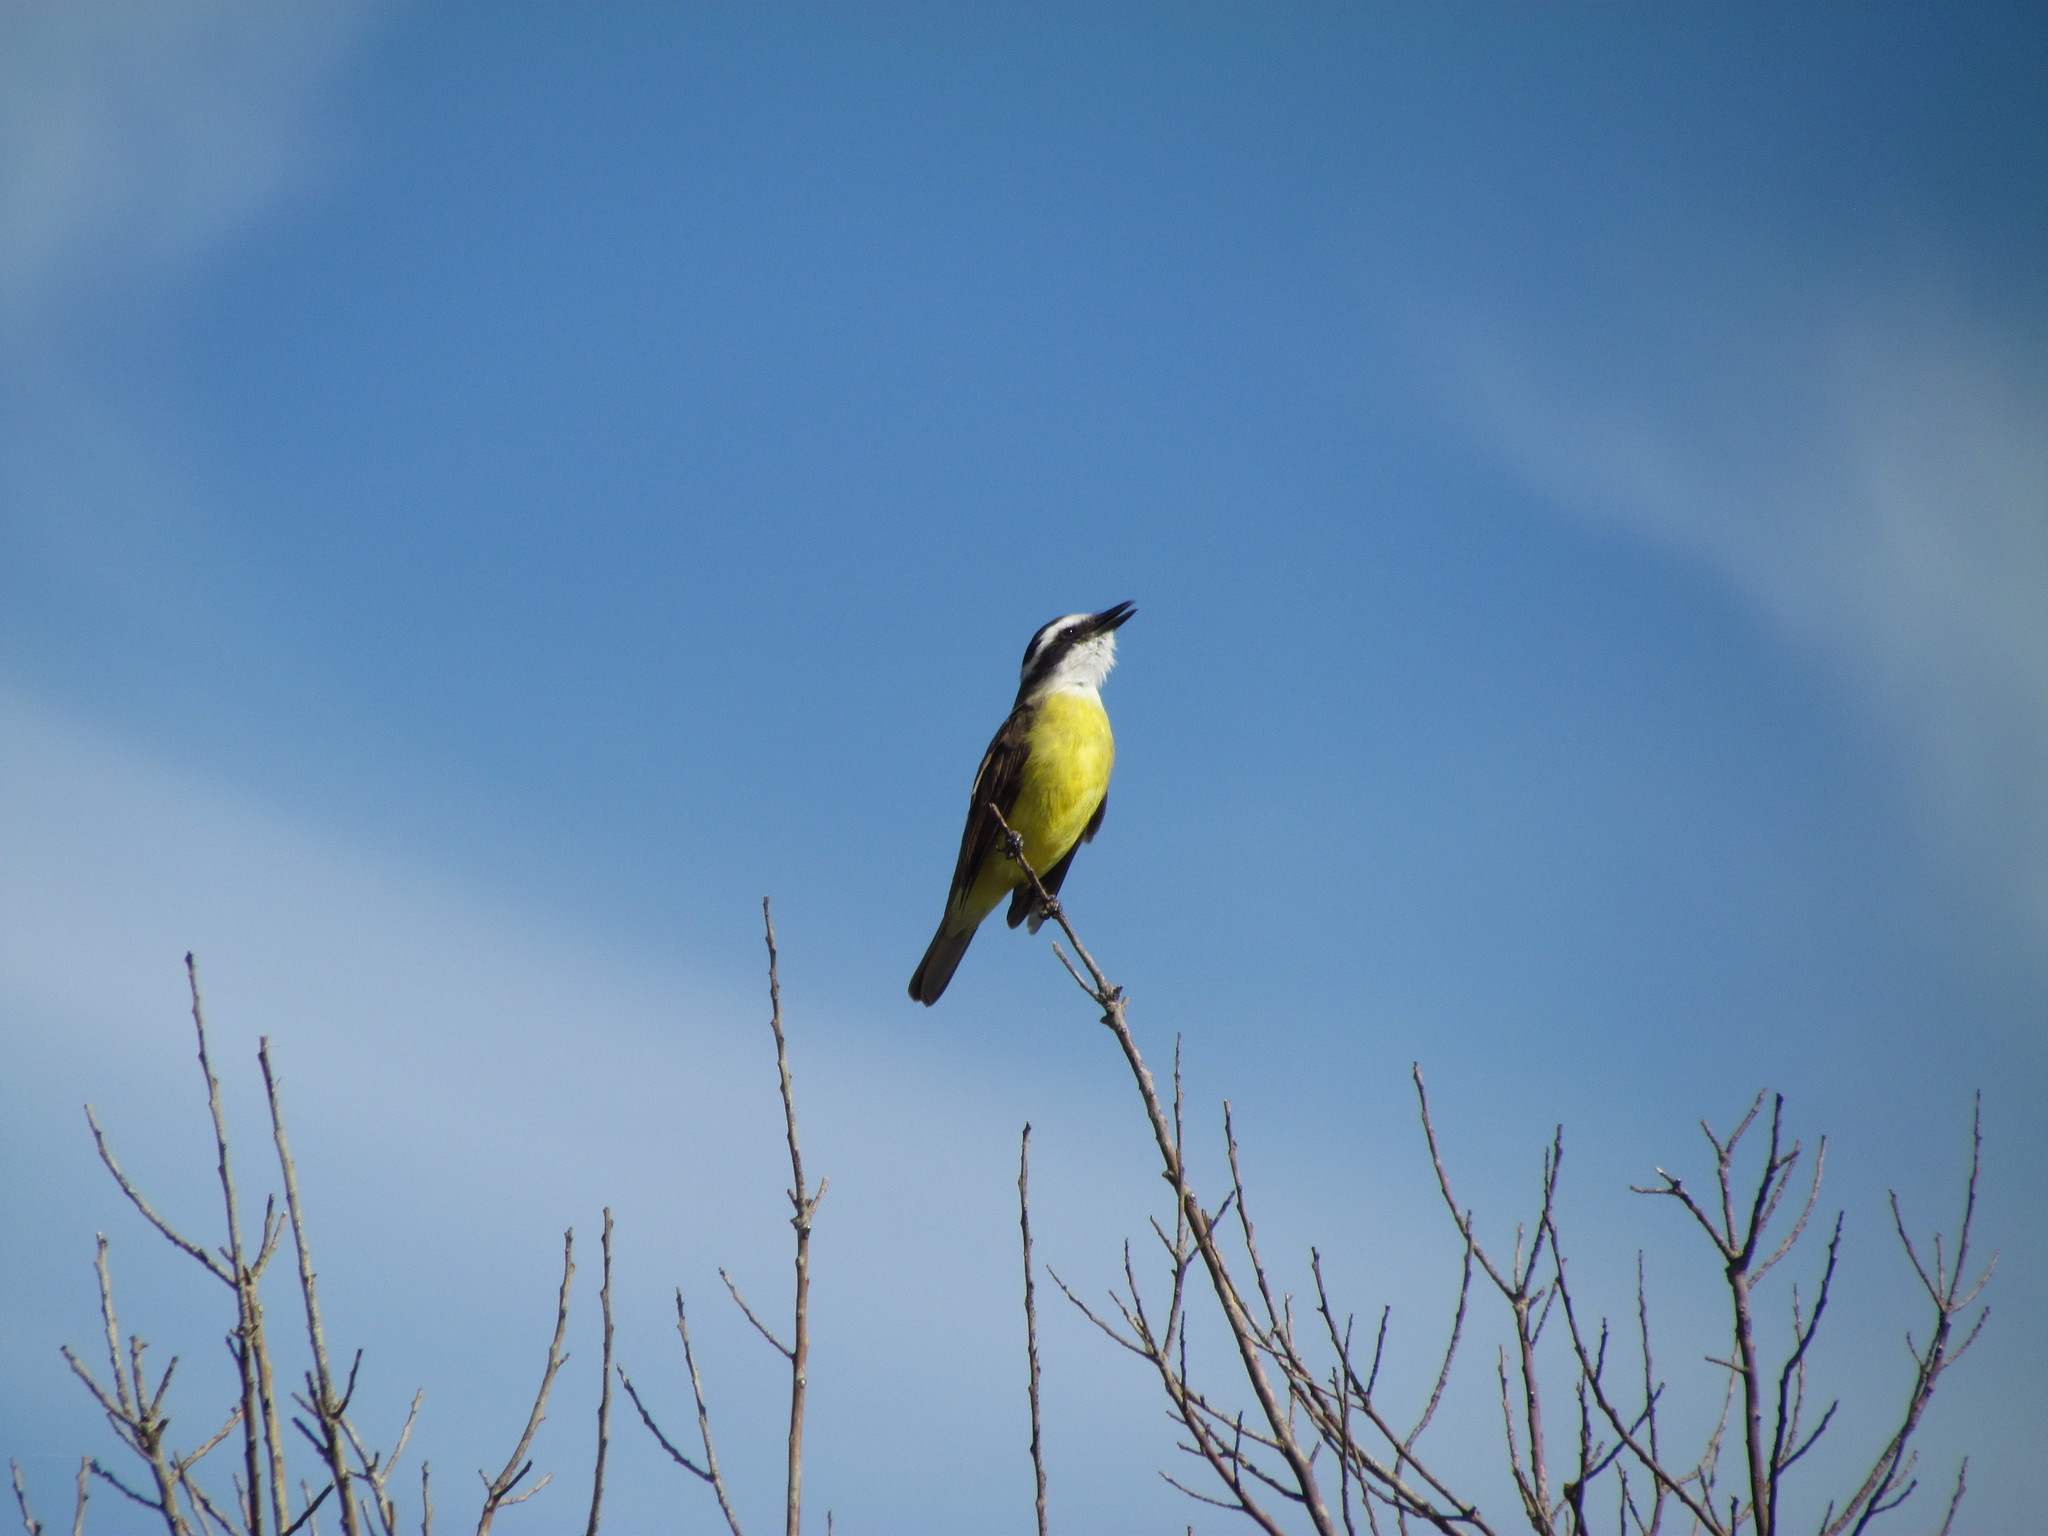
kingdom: Animalia
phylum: Chordata
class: Aves
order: Passeriformes
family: Tyrannidae
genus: Pitangus
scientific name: Pitangus sulphuratus
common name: Great kiskadee
